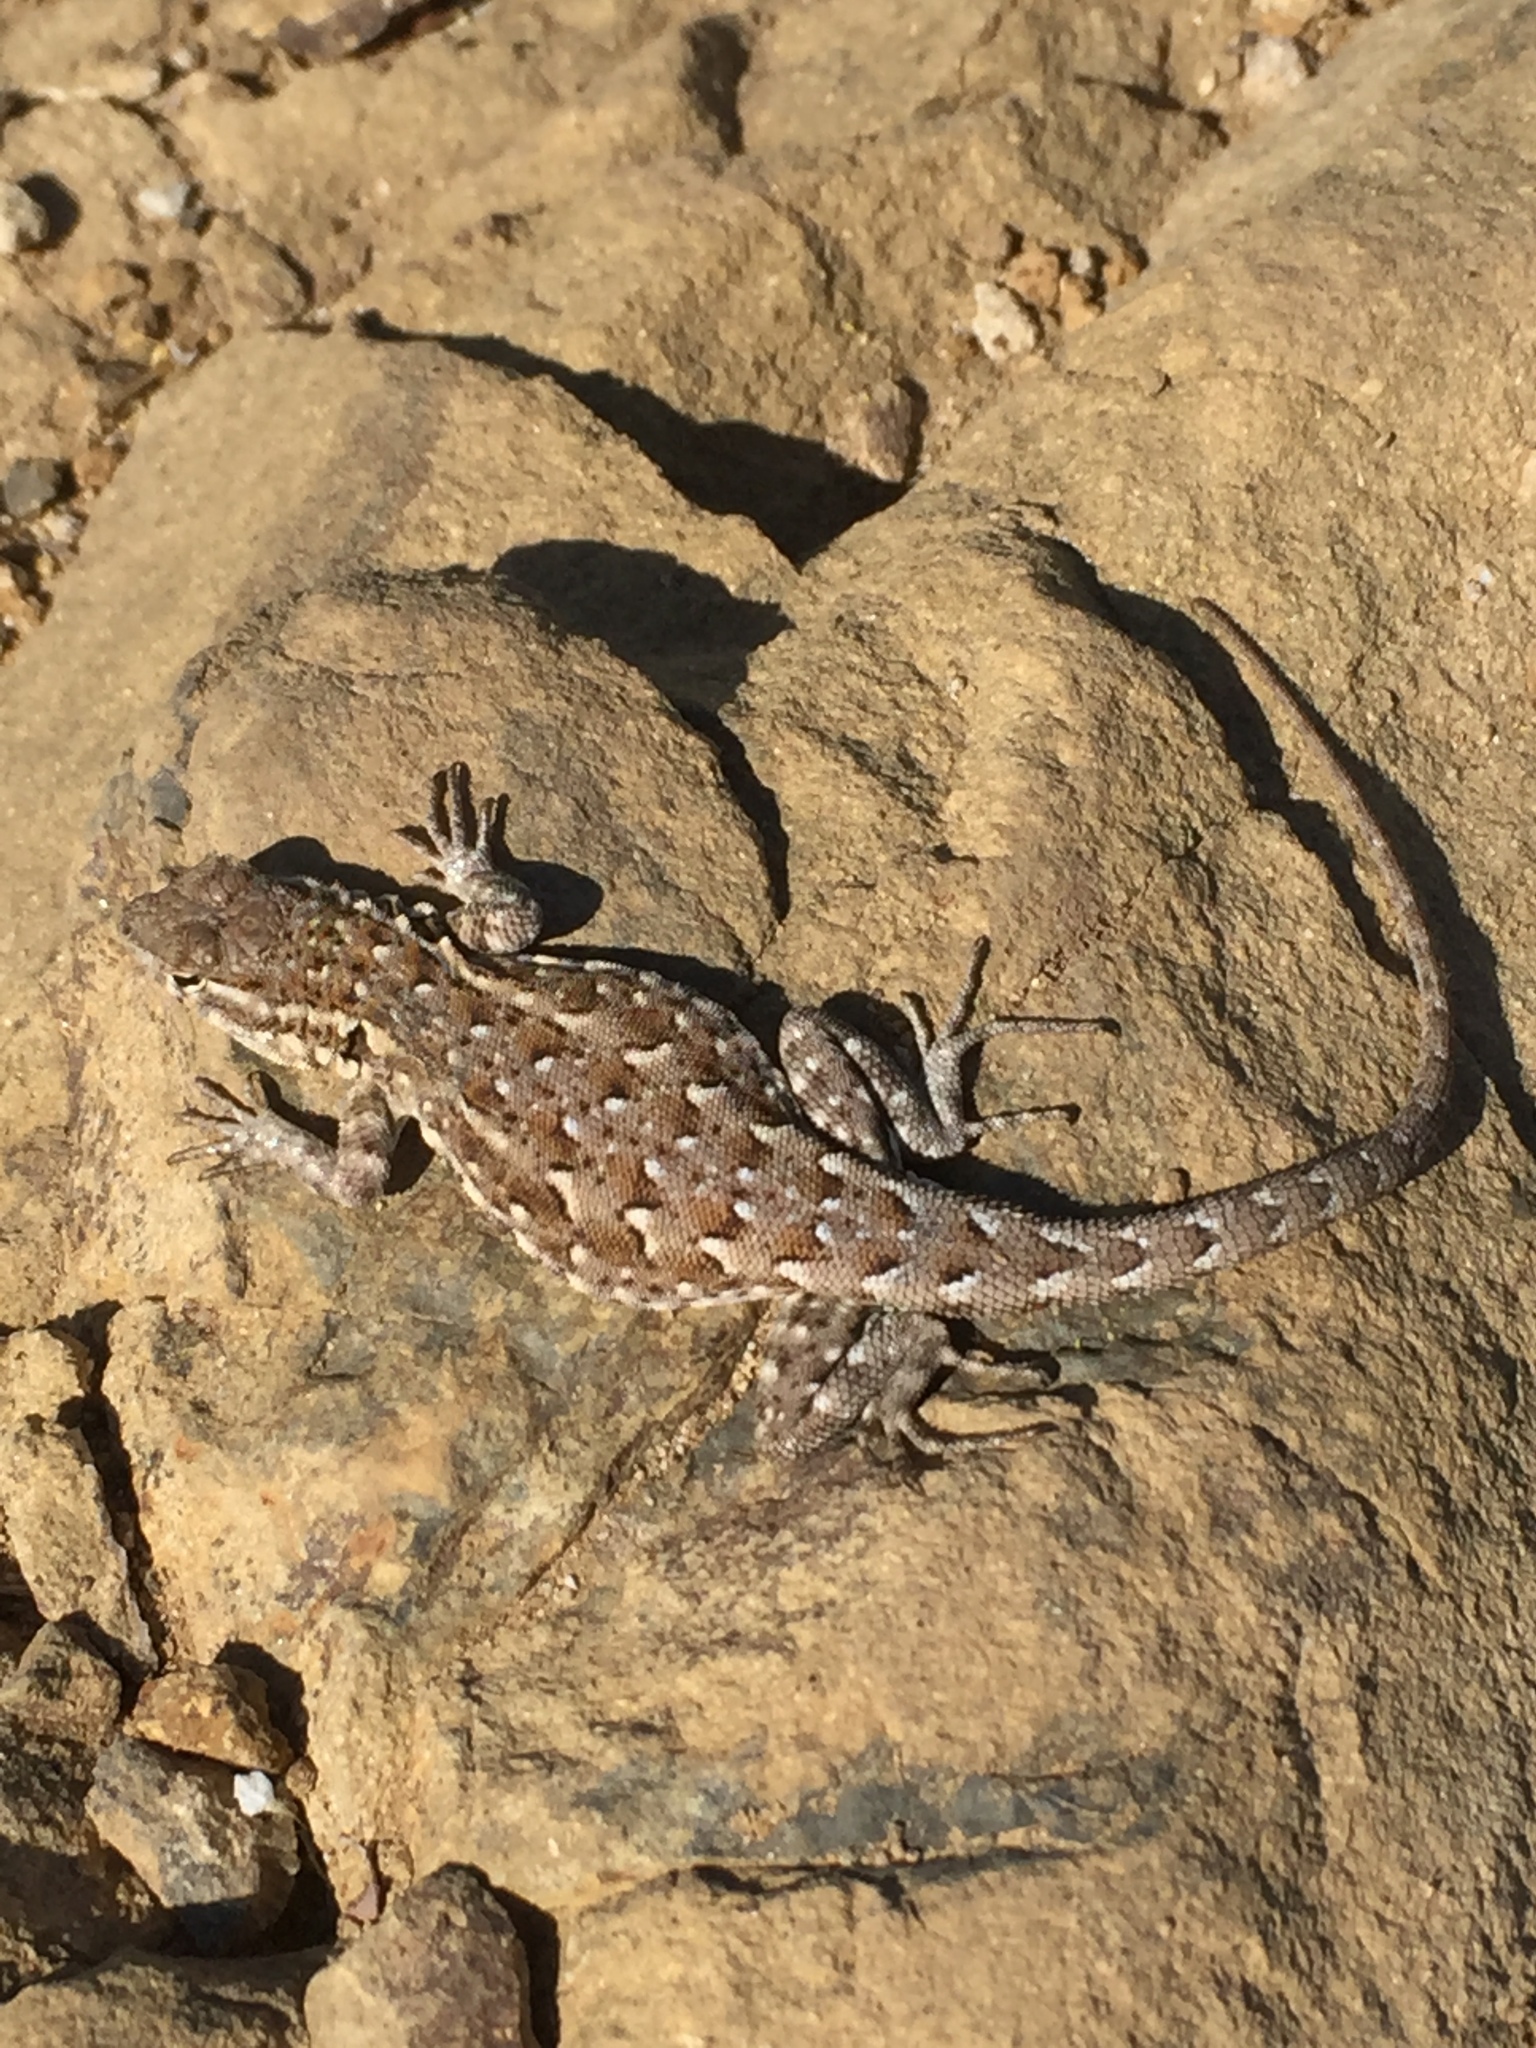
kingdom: Animalia
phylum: Chordata
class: Squamata
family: Phrynosomatidae
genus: Uta
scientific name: Uta stansburiana
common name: Side-blotched lizard
